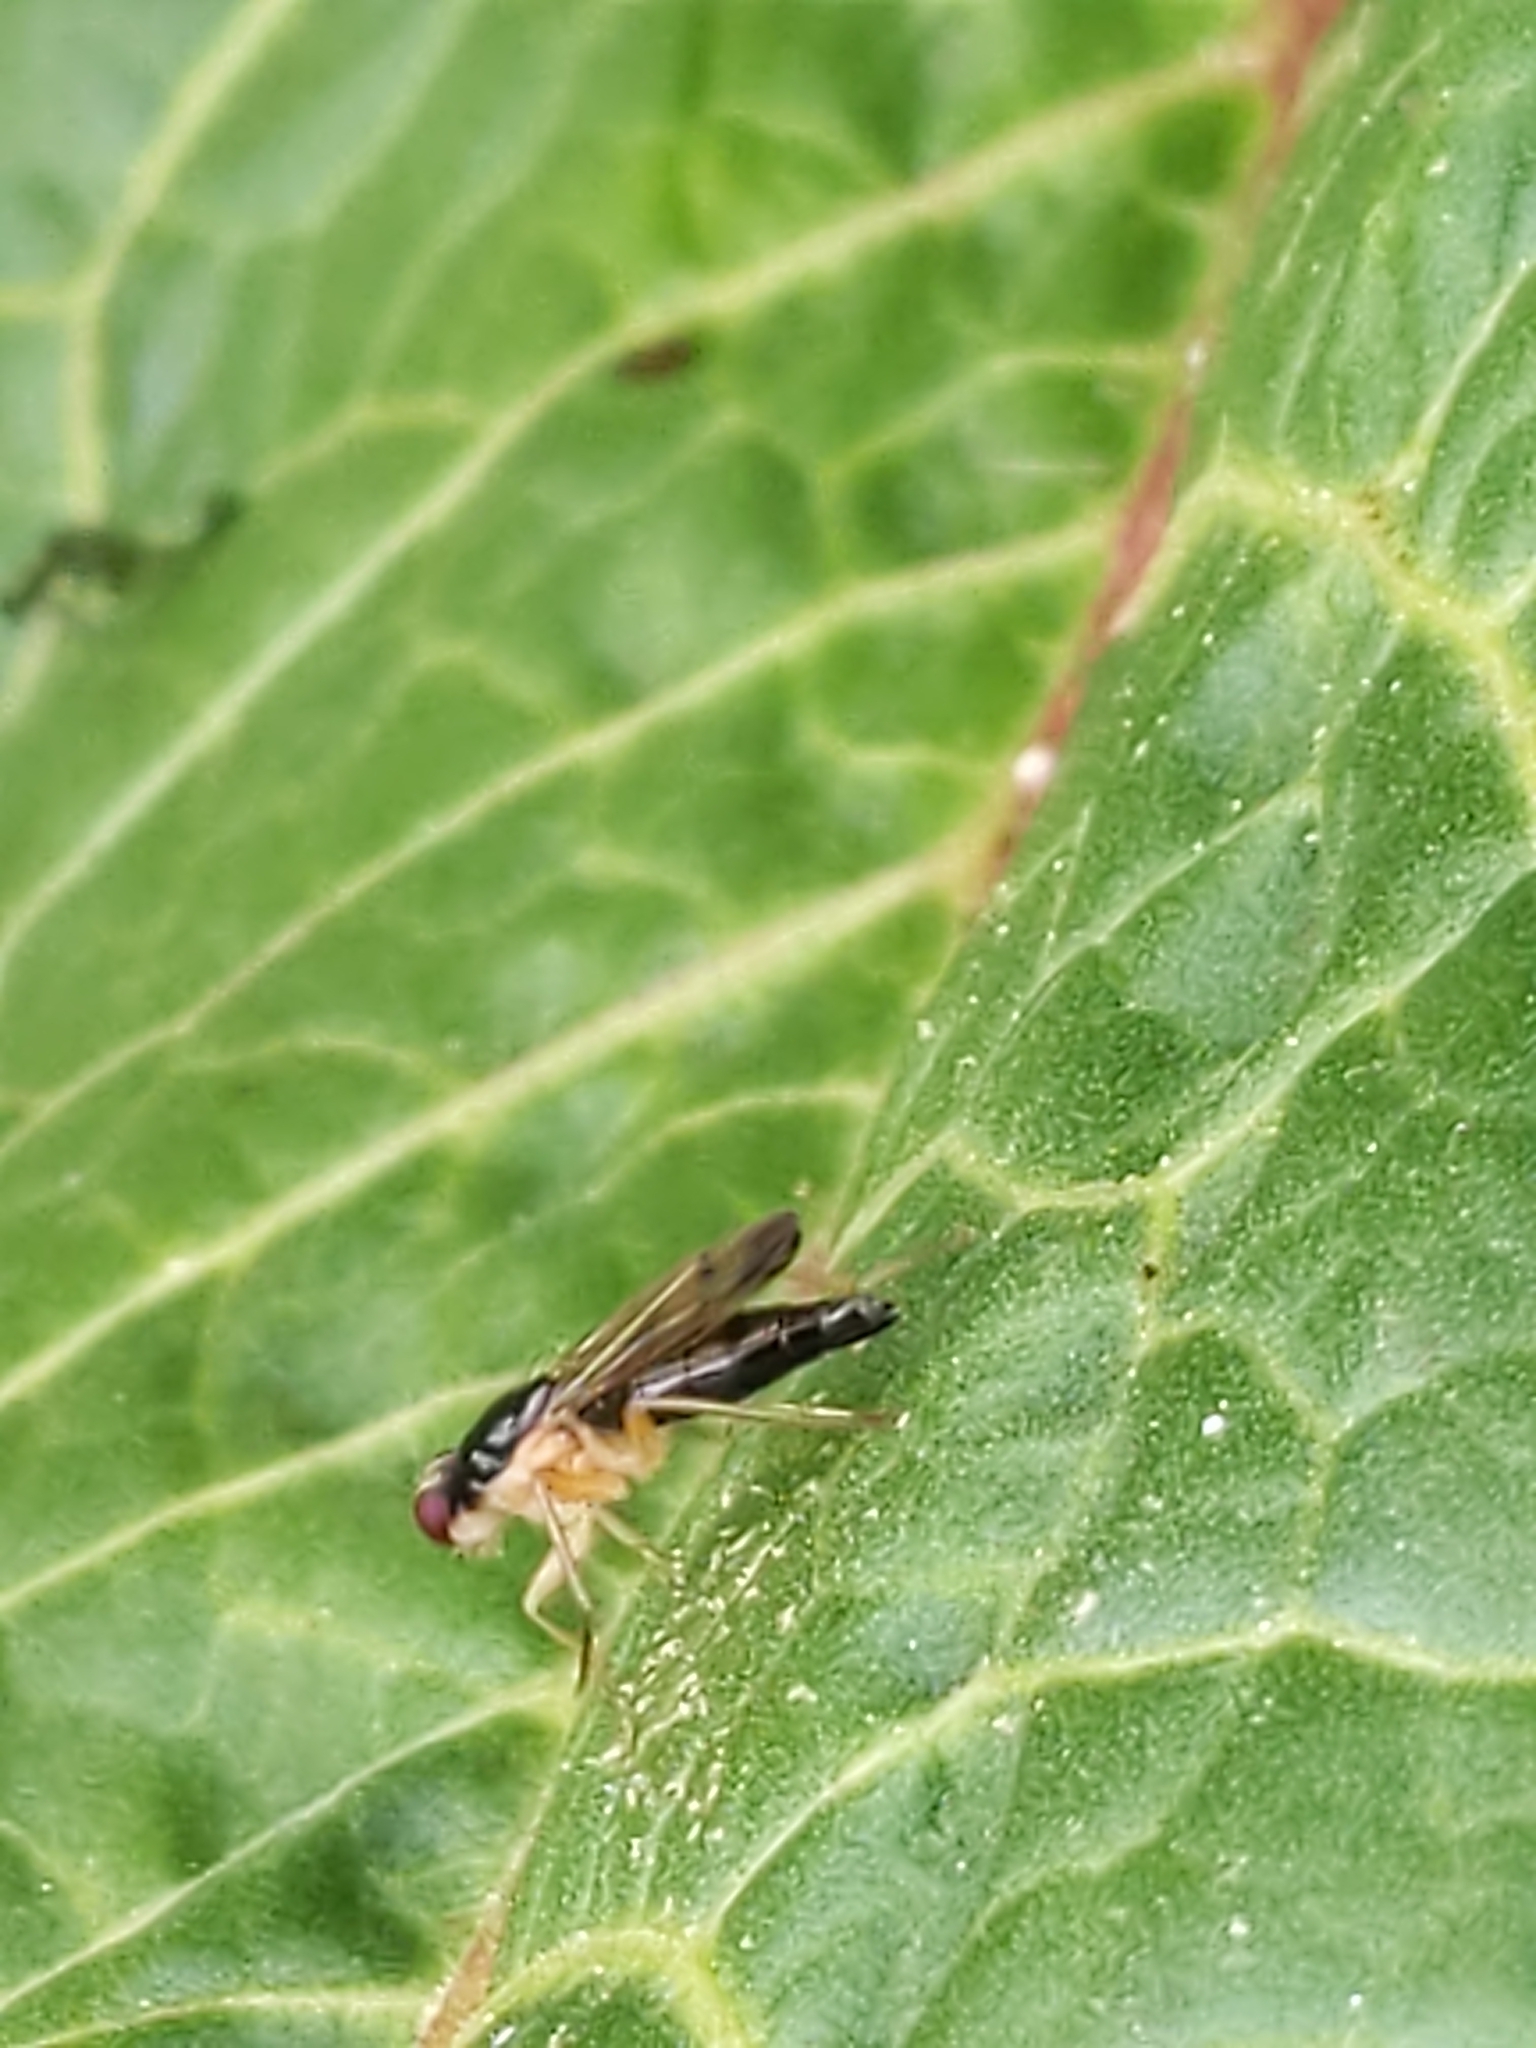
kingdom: Animalia
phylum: Arthropoda
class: Insecta
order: Diptera
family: Scathophagidae
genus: Cordilura
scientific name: Cordilura
